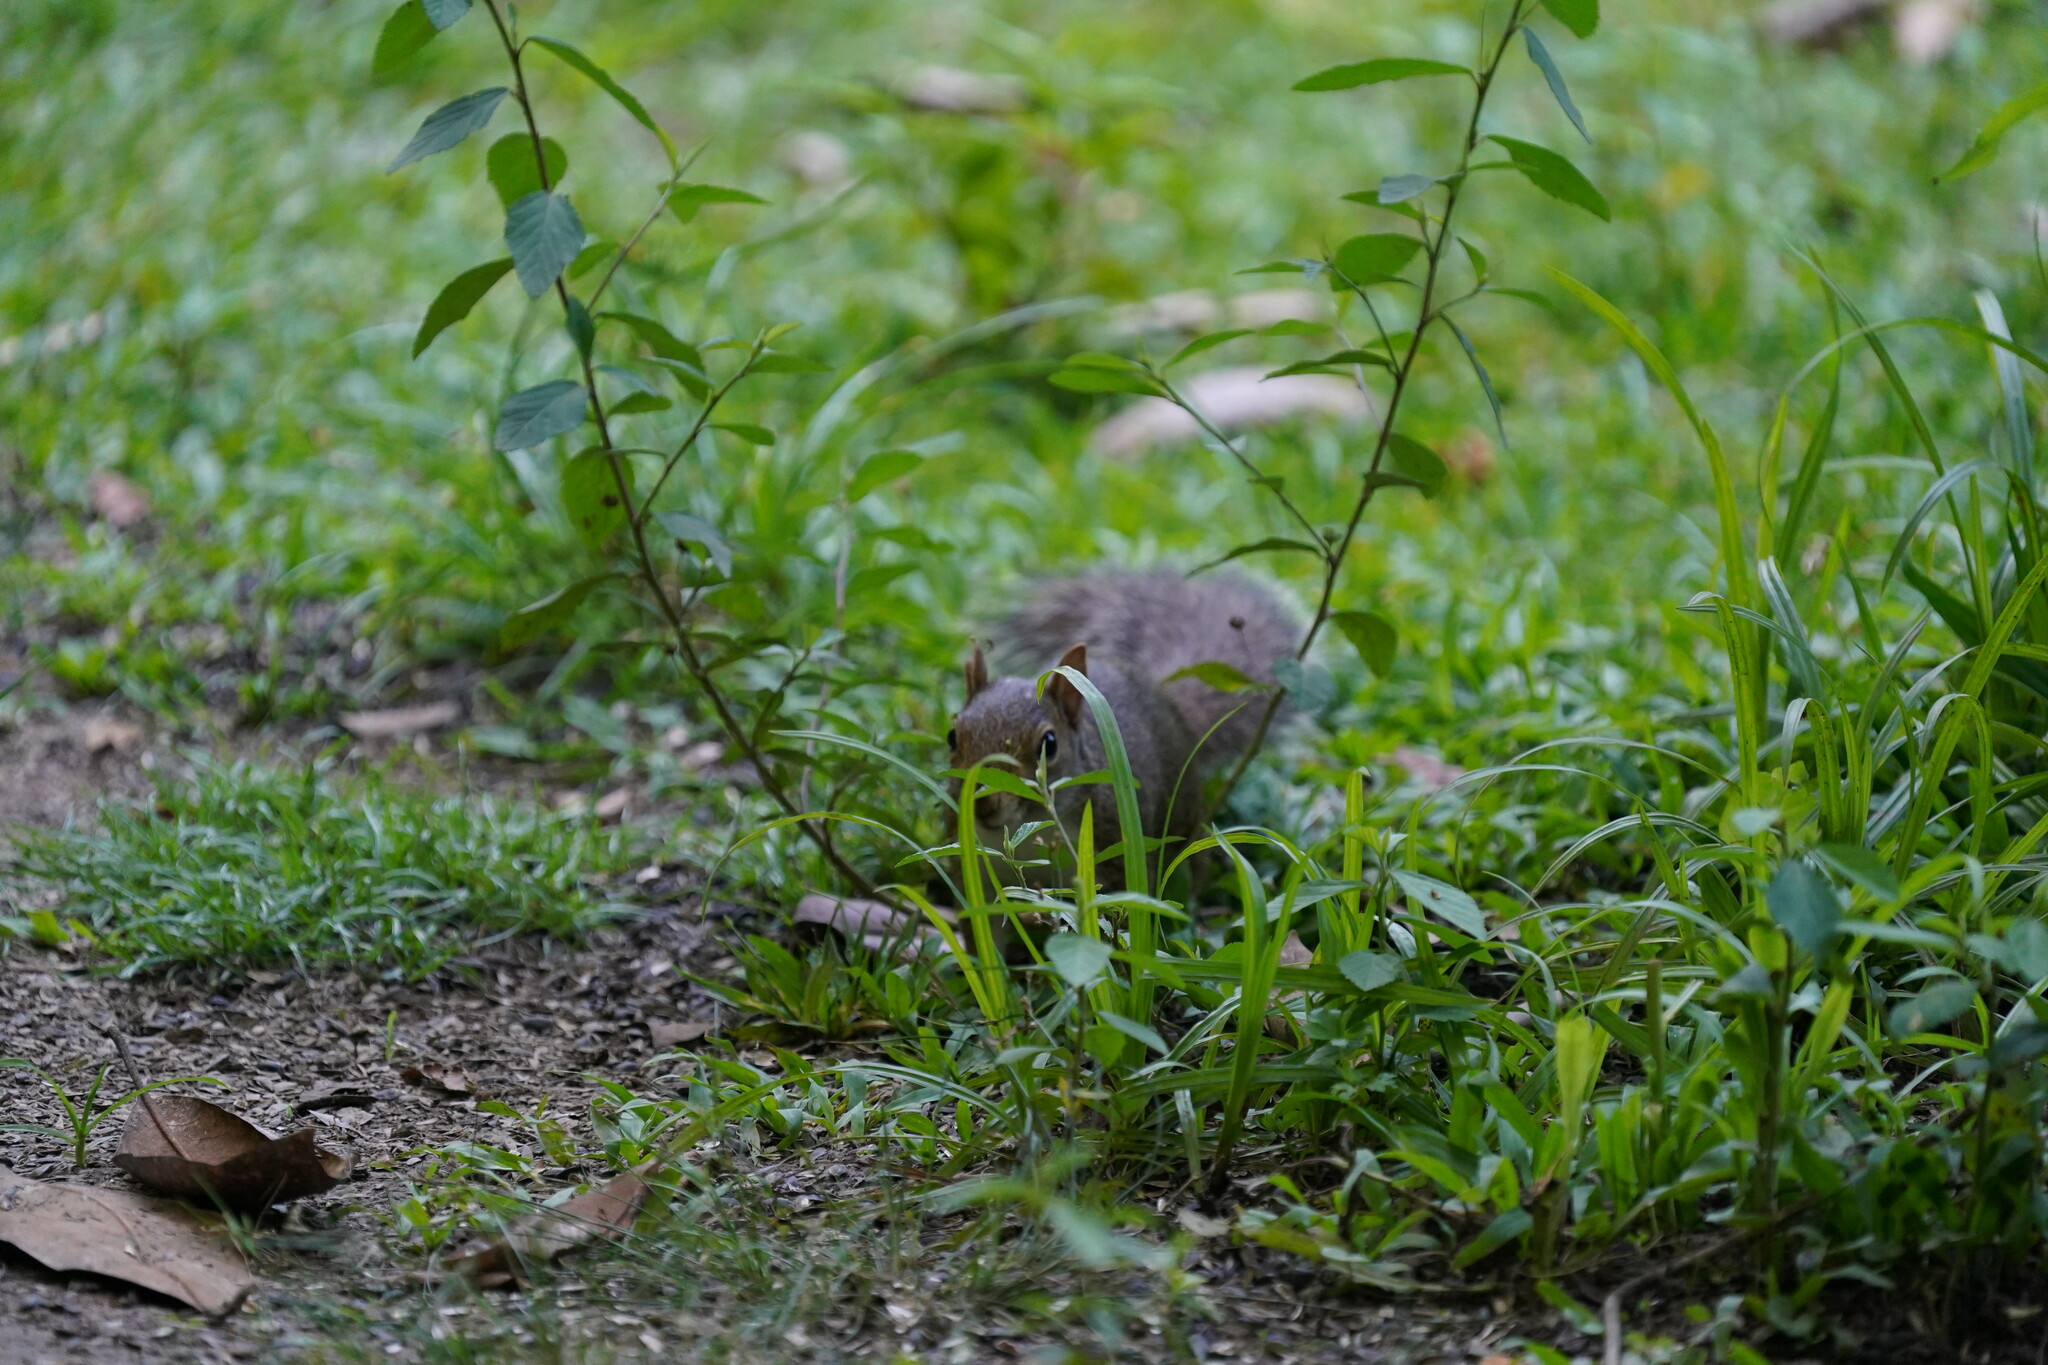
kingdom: Animalia
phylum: Chordata
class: Mammalia
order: Rodentia
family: Sciuridae
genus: Sciurus
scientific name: Sciurus carolinensis
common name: Eastern gray squirrel
